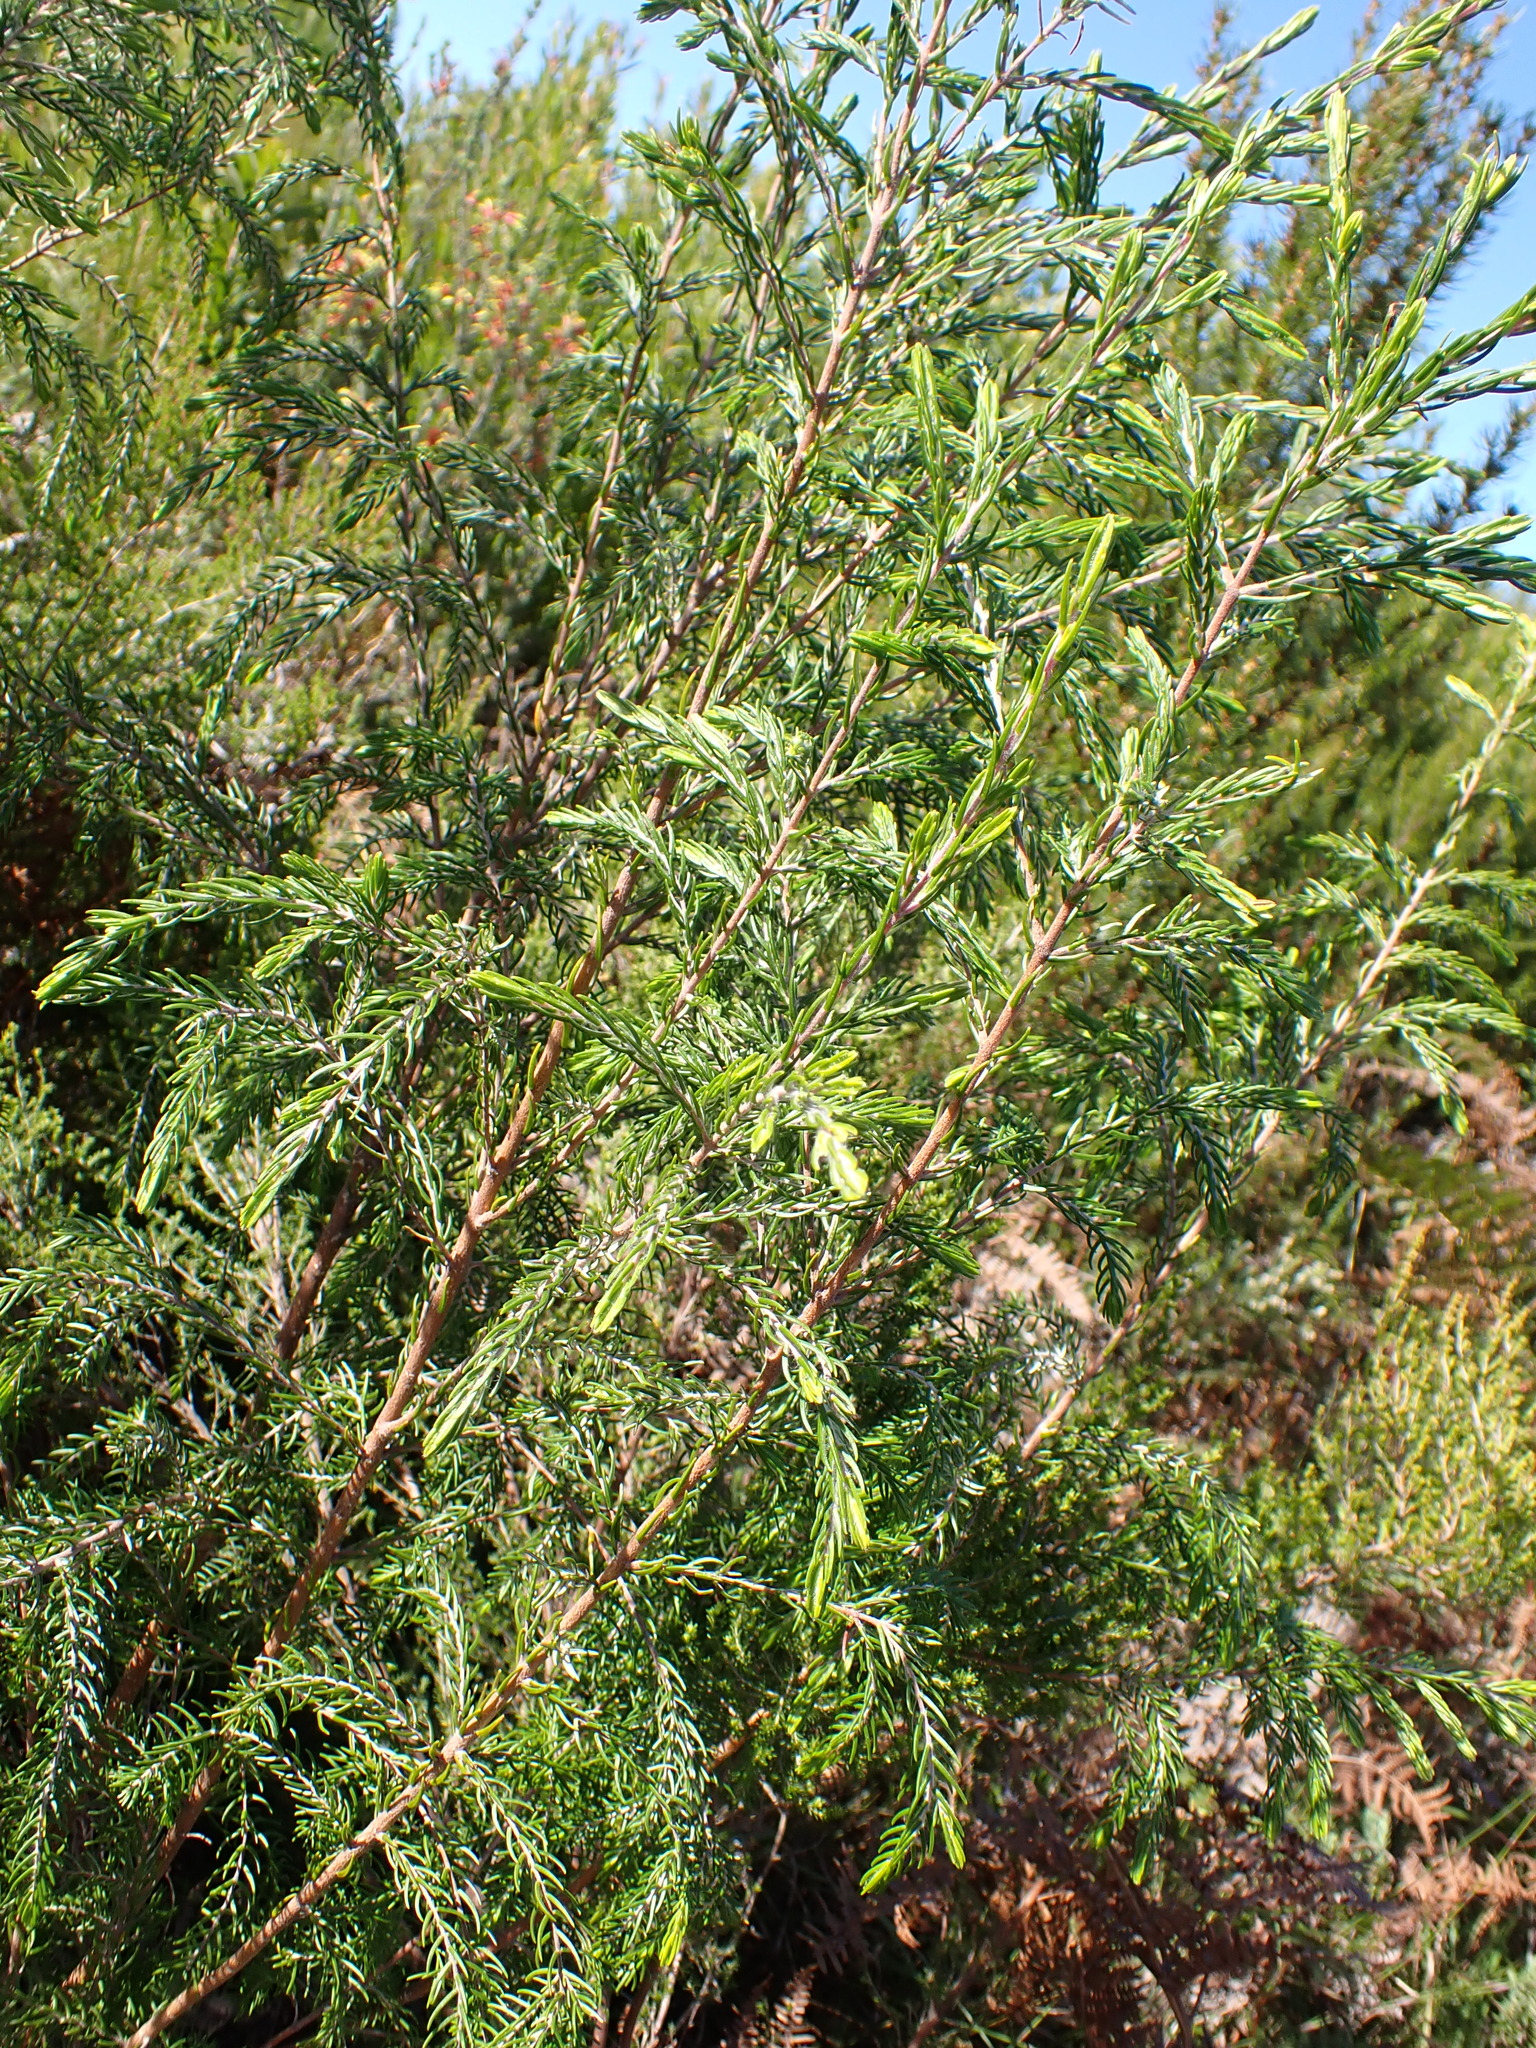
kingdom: Plantae
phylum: Tracheophyta
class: Magnoliopsida
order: Malvales
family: Thymelaeaceae
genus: Passerina
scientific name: Passerina falcifolia
